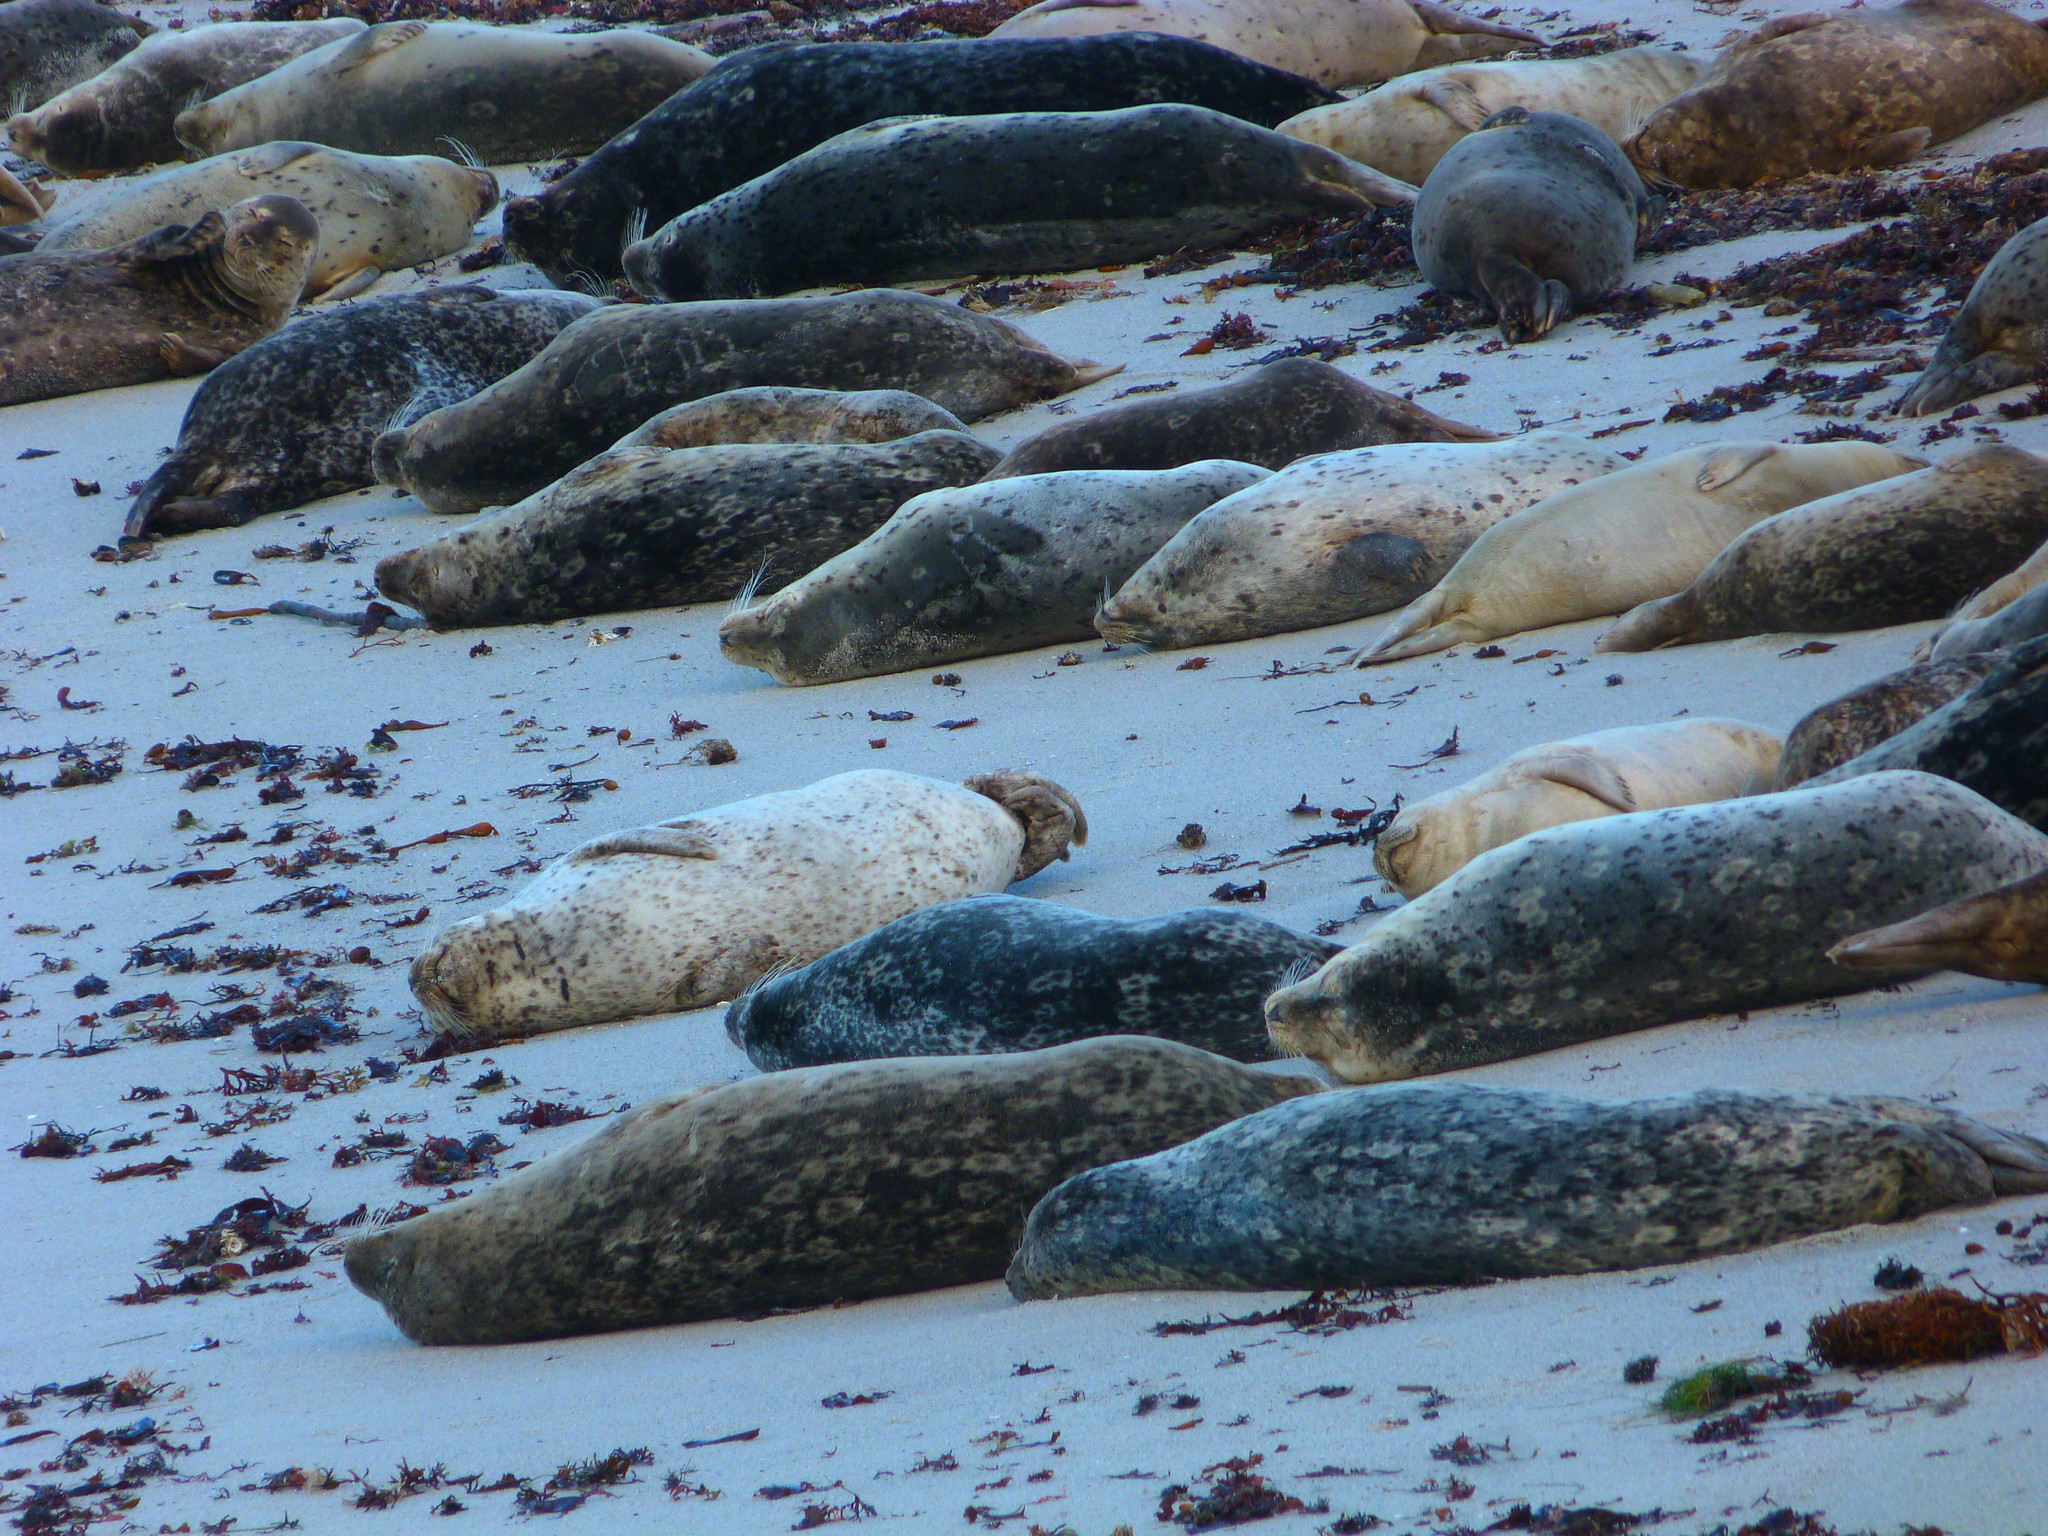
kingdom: Animalia
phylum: Chordata
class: Mammalia
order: Carnivora
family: Phocidae
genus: Phoca
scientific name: Phoca vitulina
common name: Harbor seal
